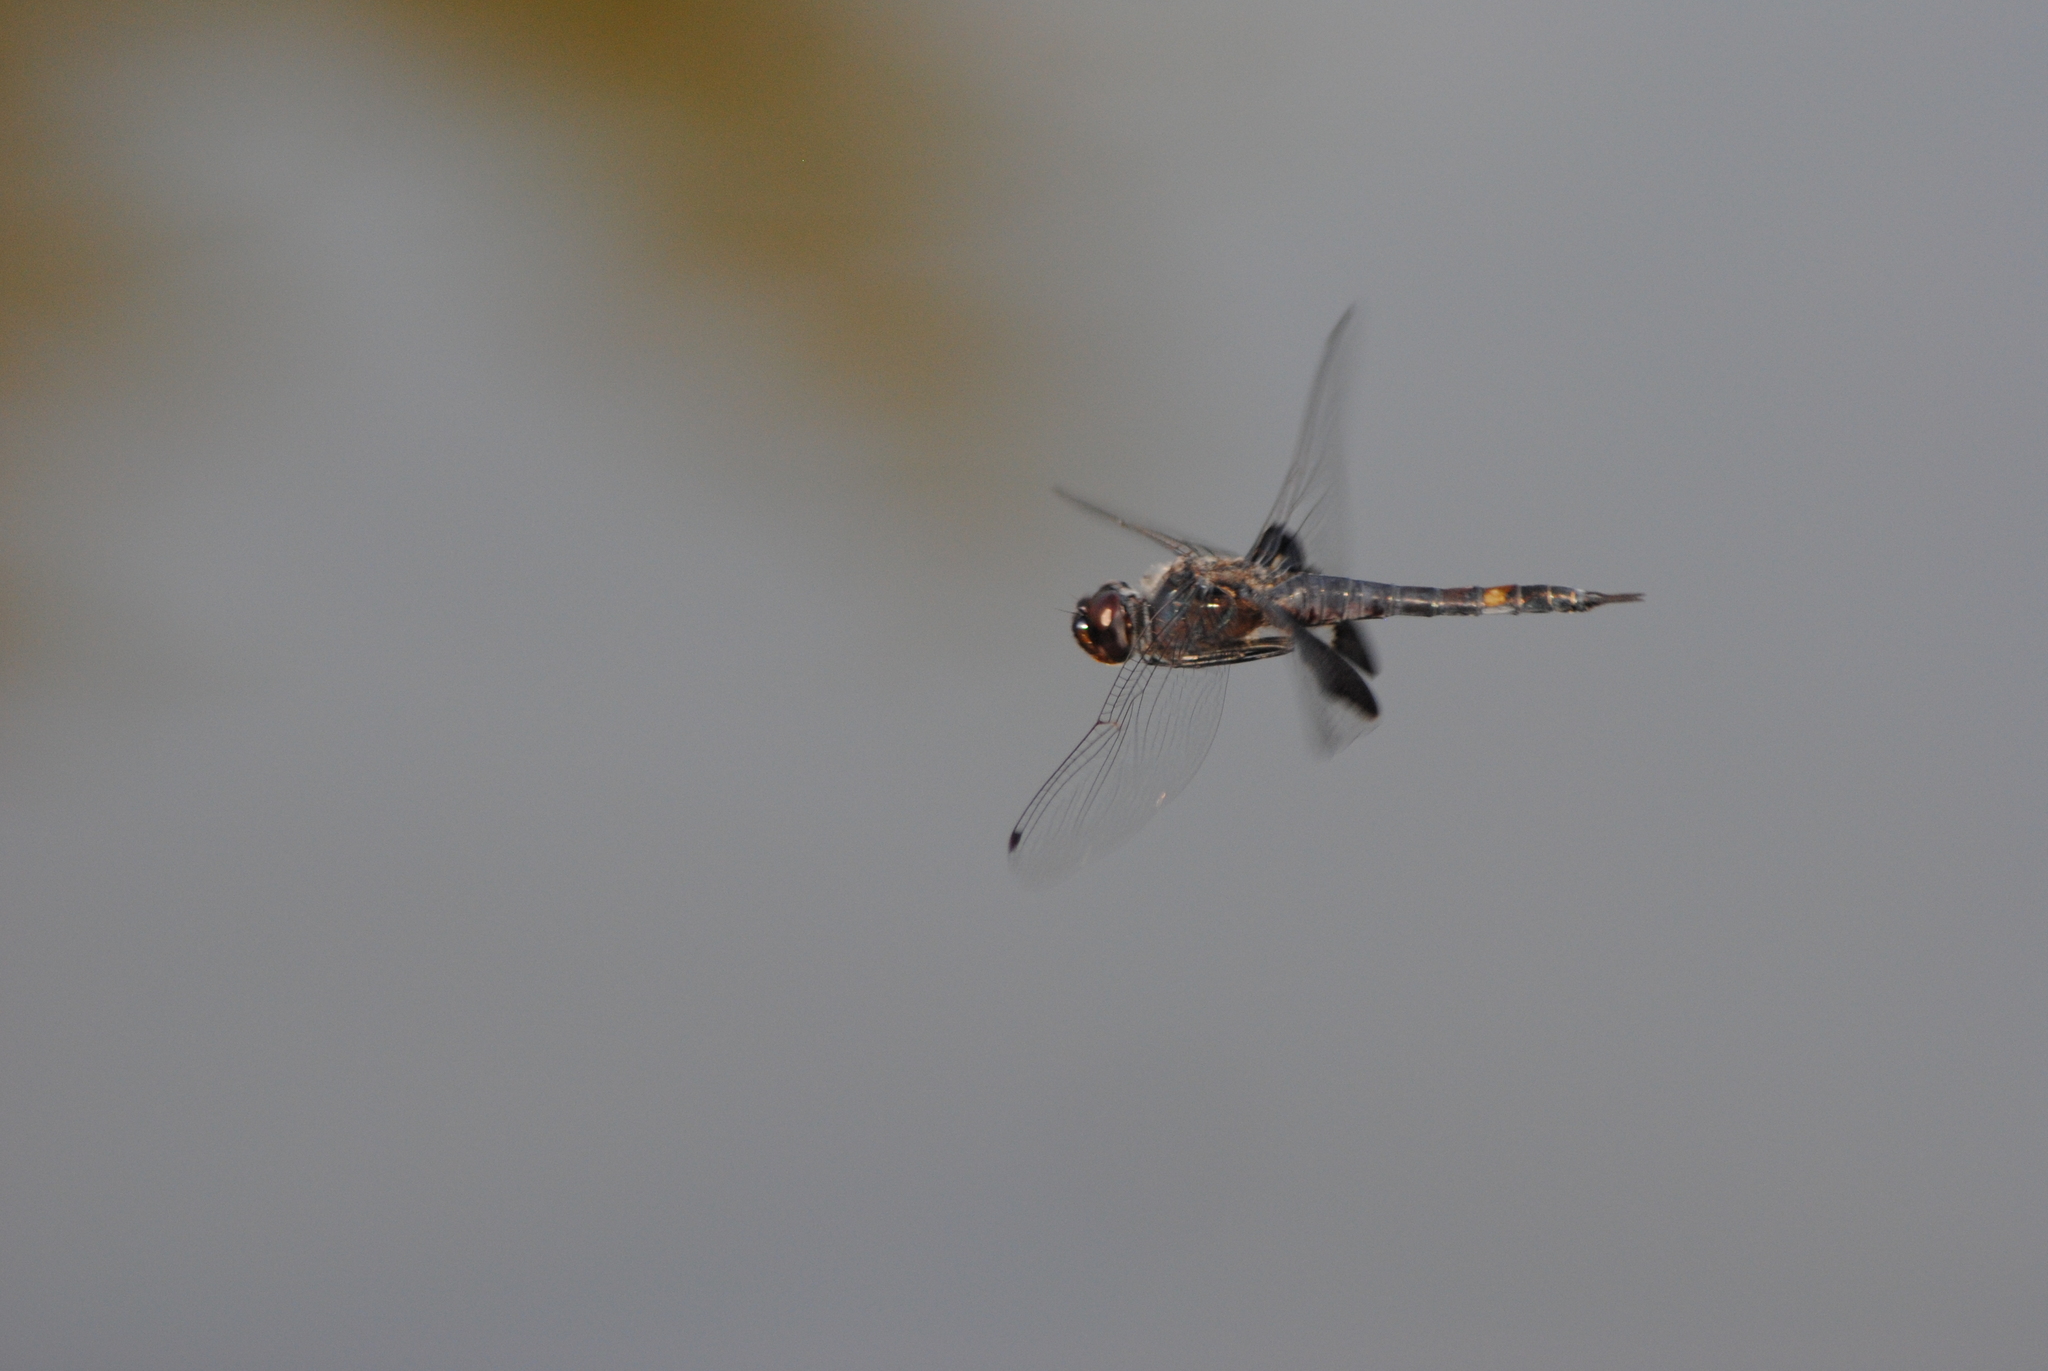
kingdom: Animalia
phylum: Arthropoda
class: Insecta
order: Odonata
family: Libellulidae
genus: Tramea
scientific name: Tramea lacerata
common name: Black saddlebags
